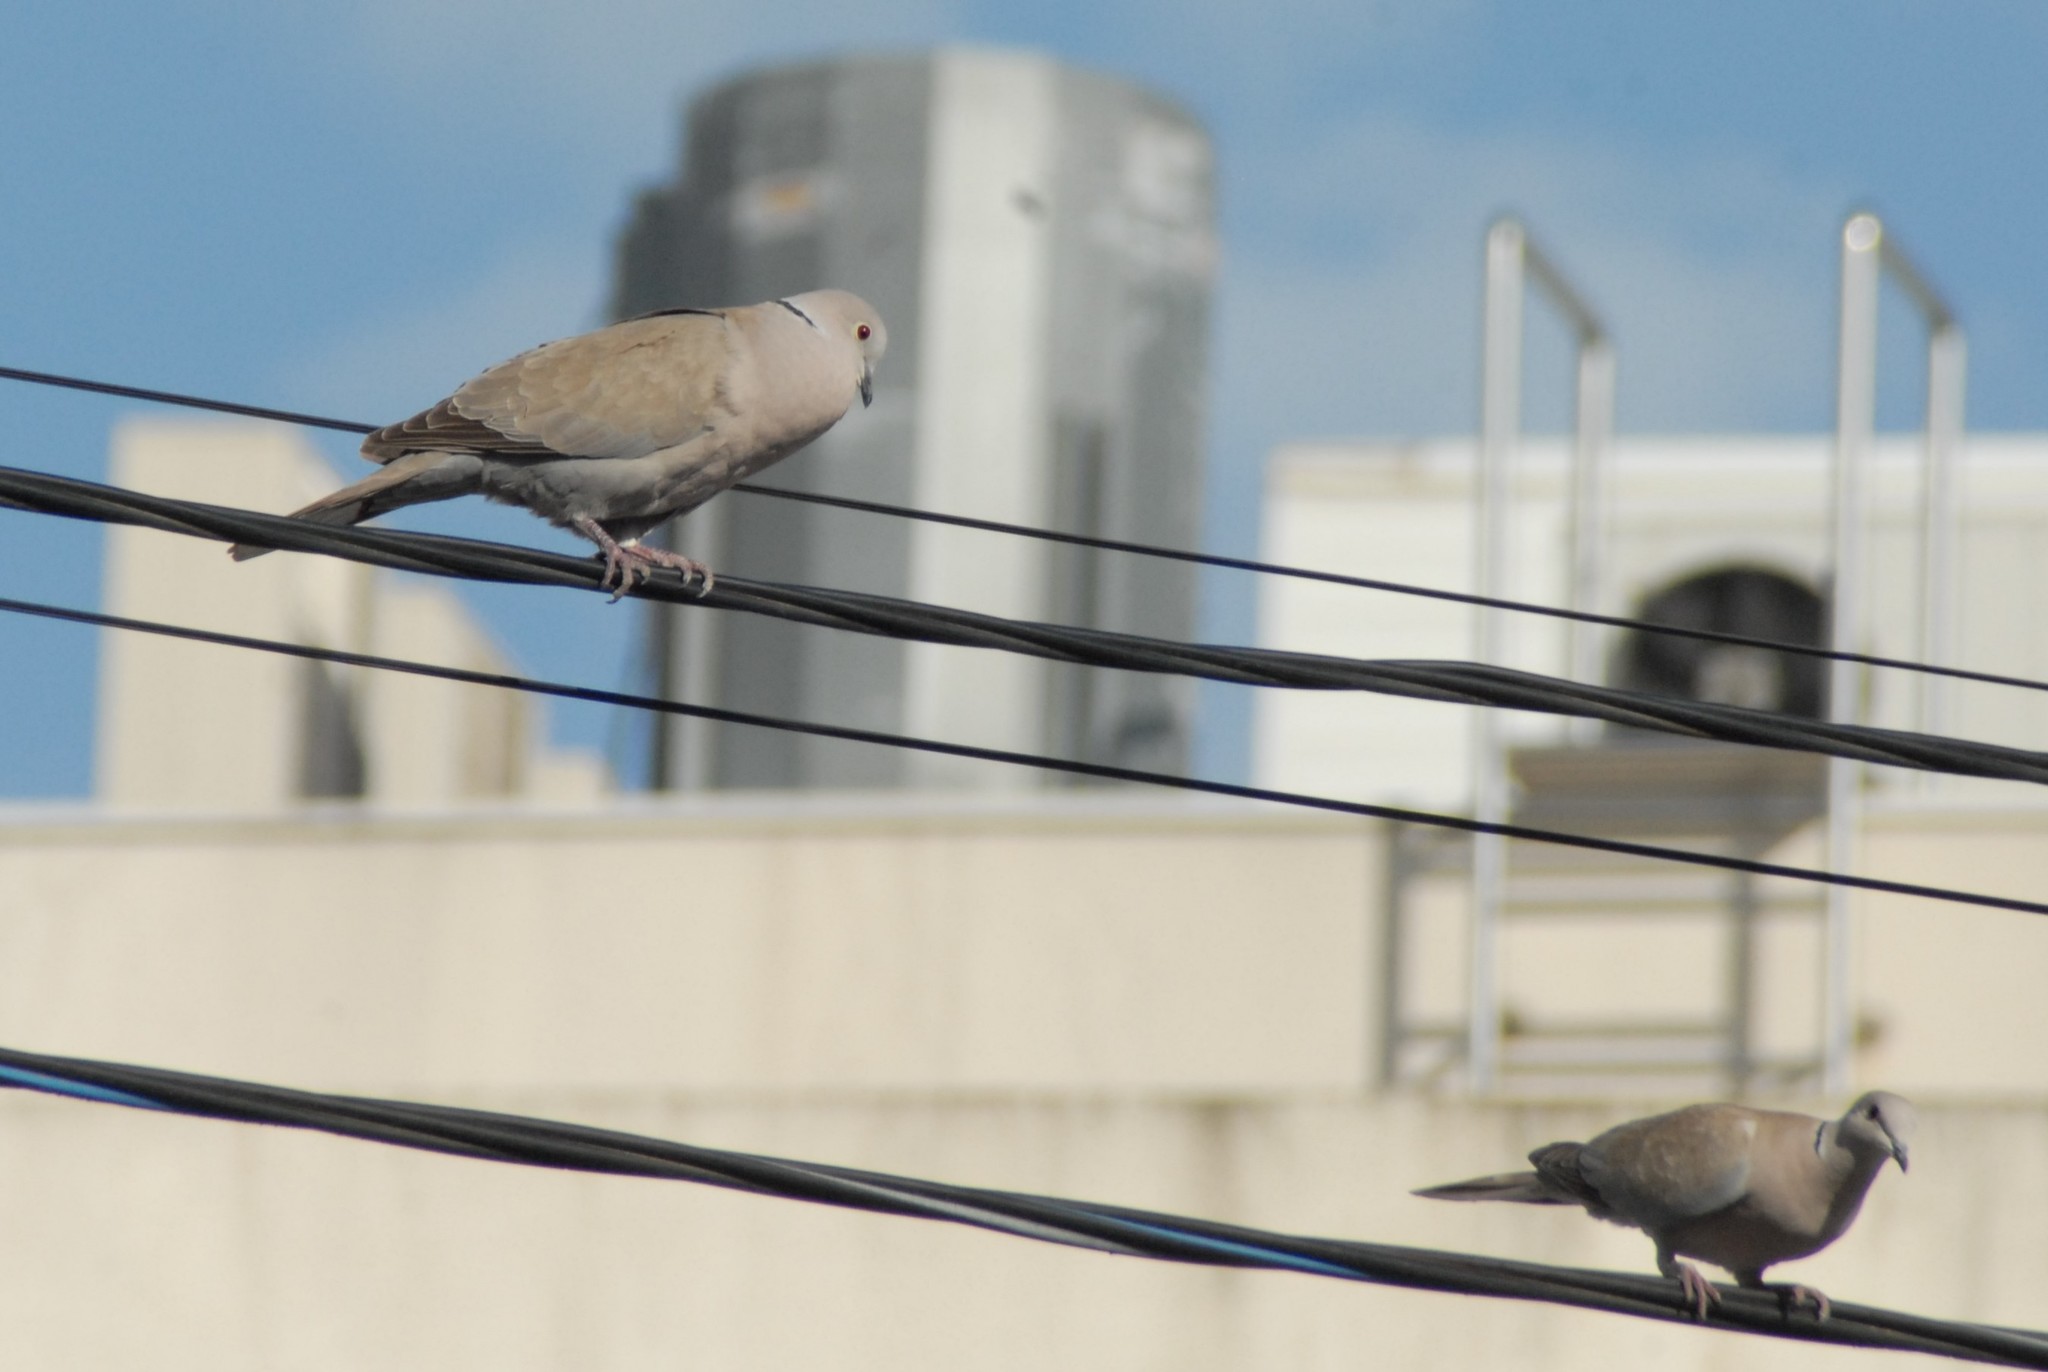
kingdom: Animalia
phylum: Chordata
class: Aves
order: Columbiformes
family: Columbidae
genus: Streptopelia
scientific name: Streptopelia decaocto
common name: Eurasian collared dove
